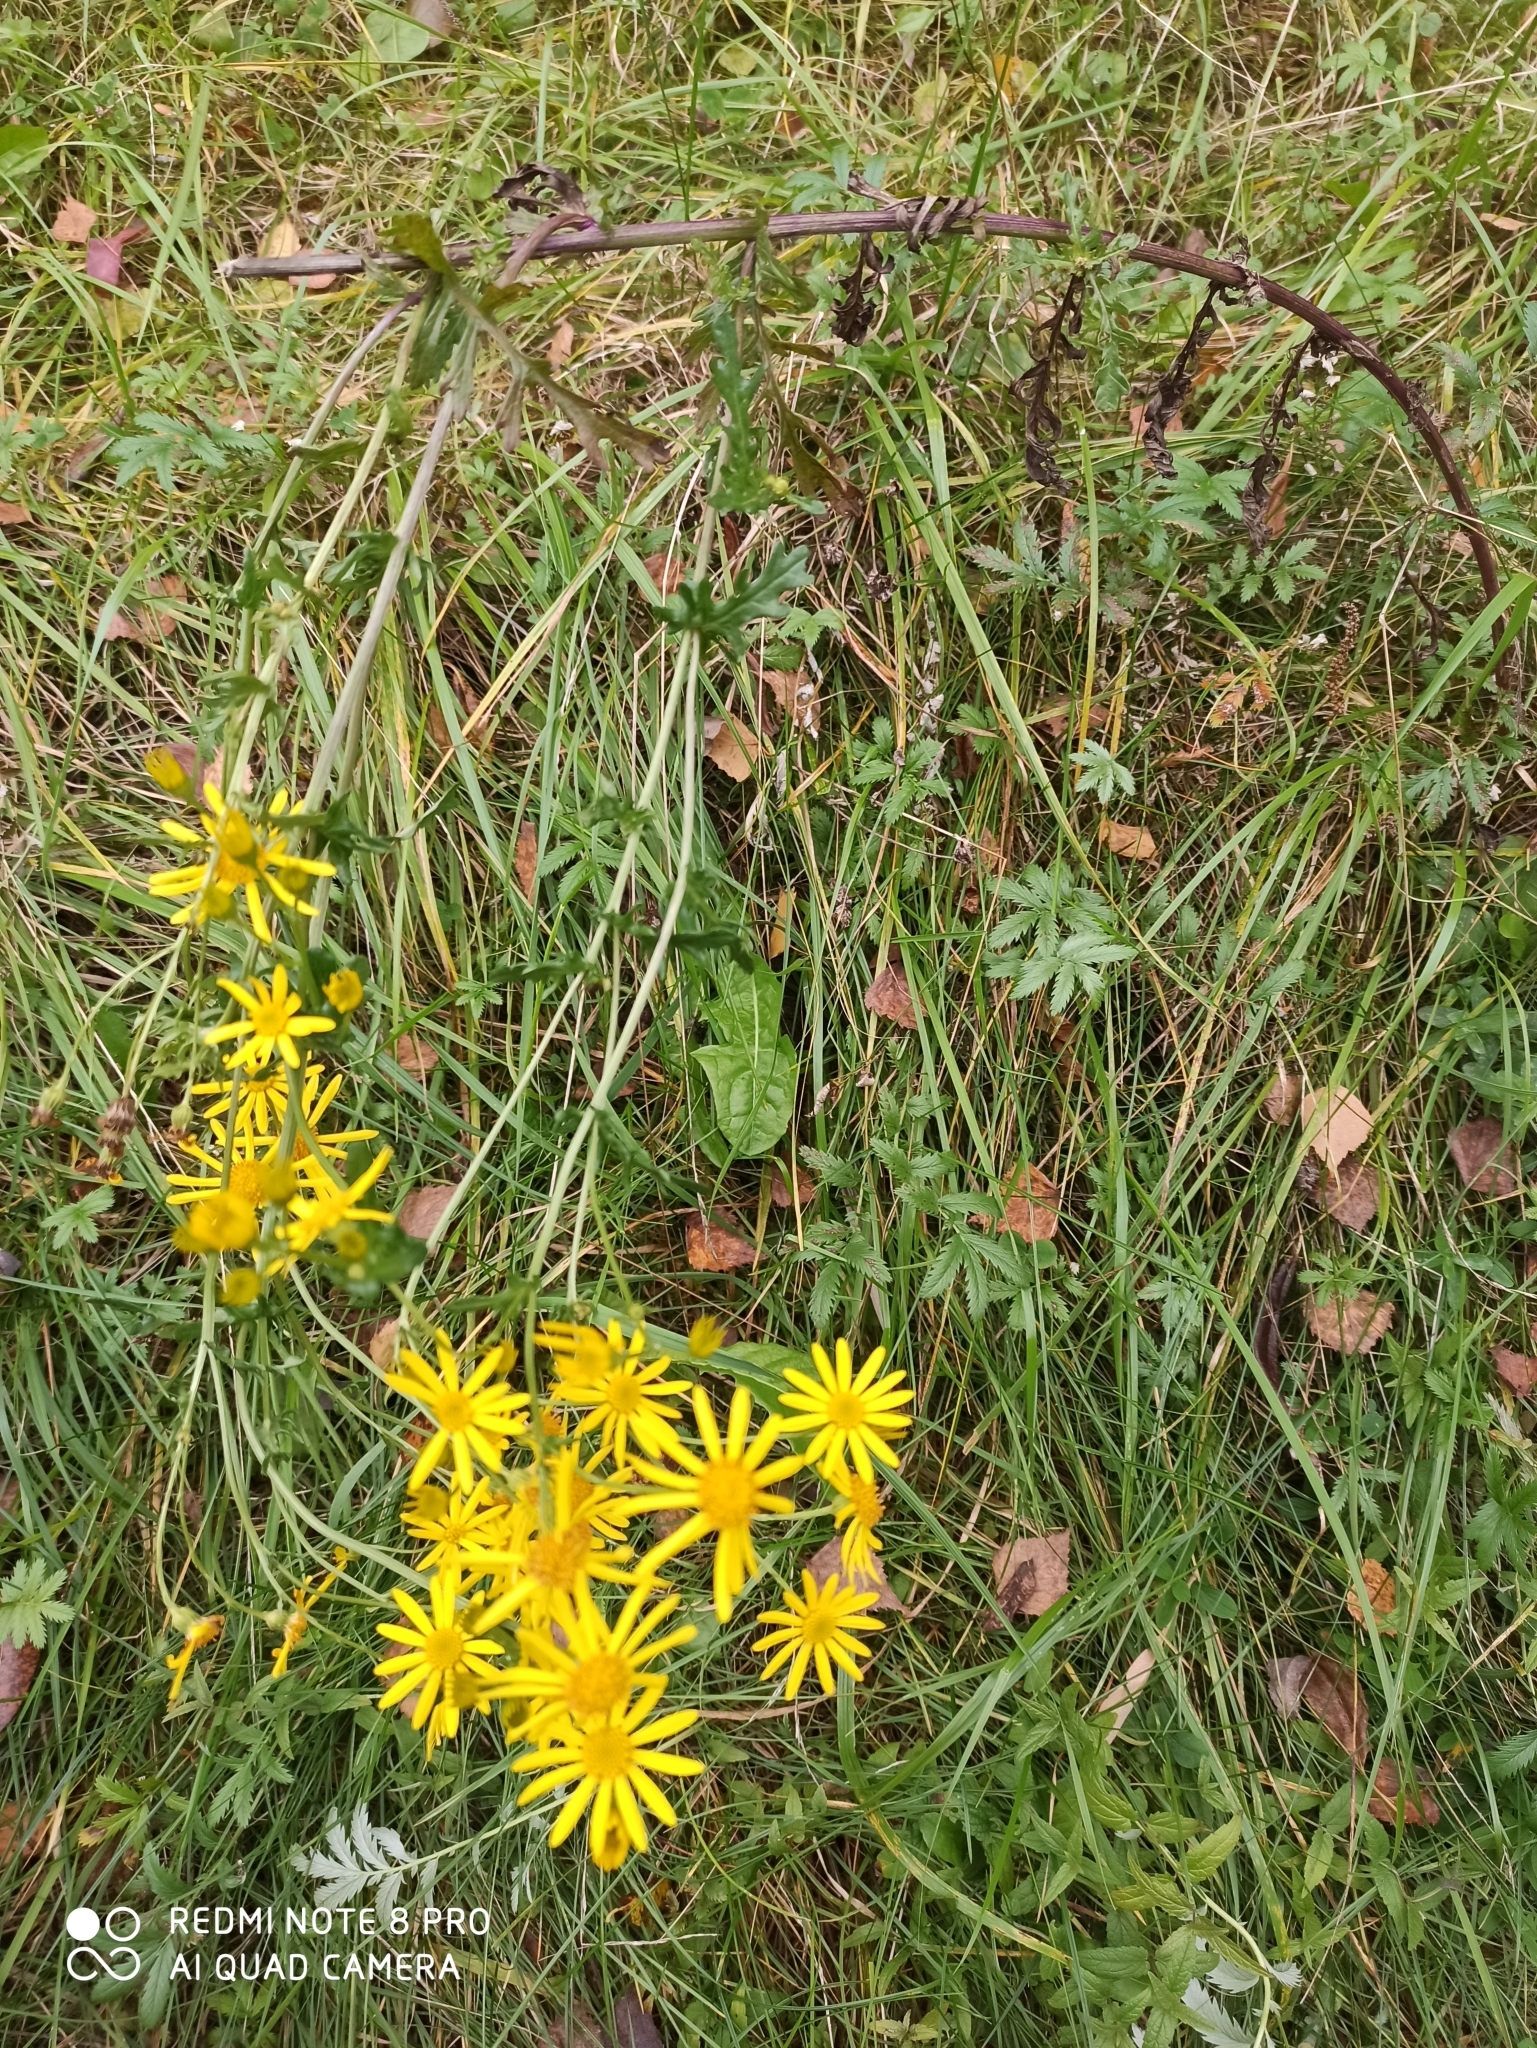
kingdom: Plantae
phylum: Tracheophyta
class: Magnoliopsida
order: Asterales
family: Asteraceae
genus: Jacobaea
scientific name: Jacobaea vulgaris
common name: Stinking willie
